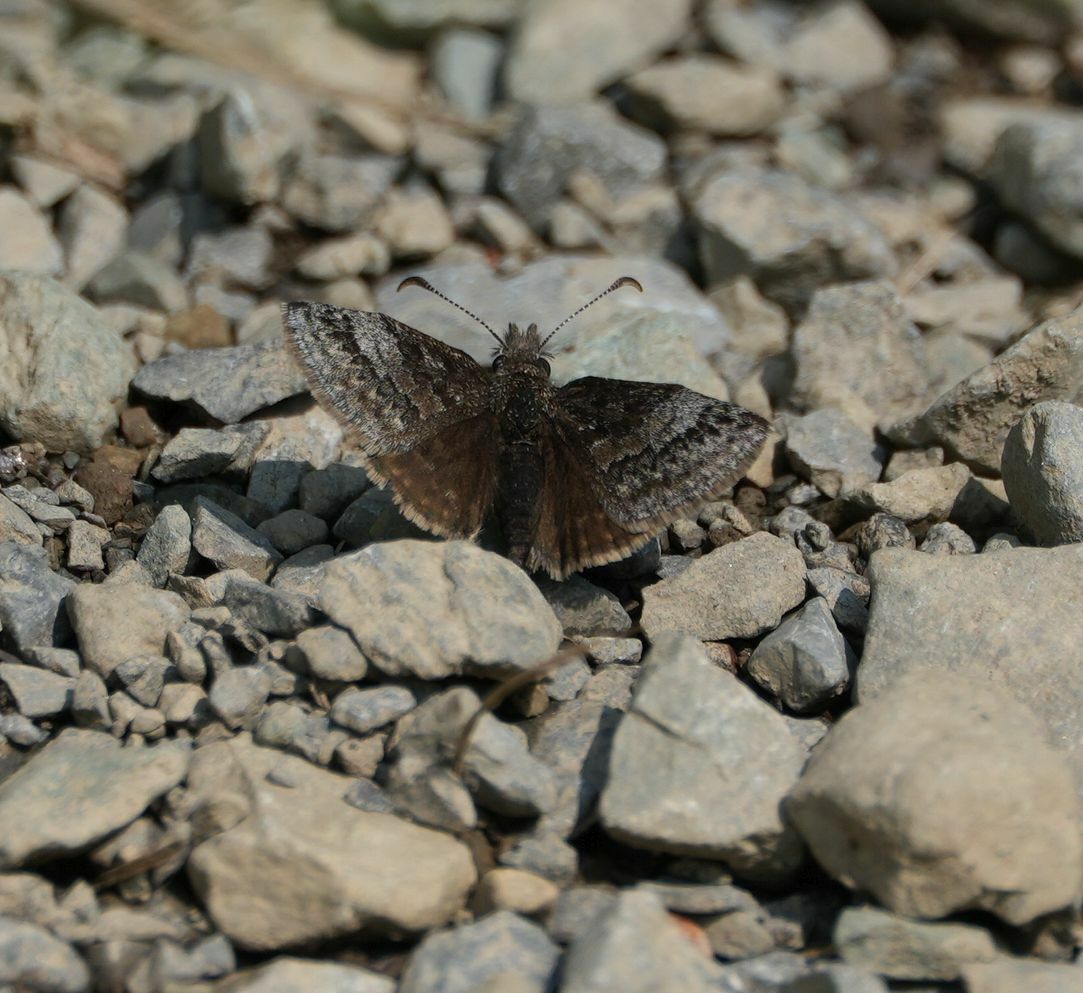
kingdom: Animalia
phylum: Arthropoda
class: Insecta
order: Lepidoptera
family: Hesperiidae
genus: Erynnis
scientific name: Erynnis icelus
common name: Dreamy duskywing
